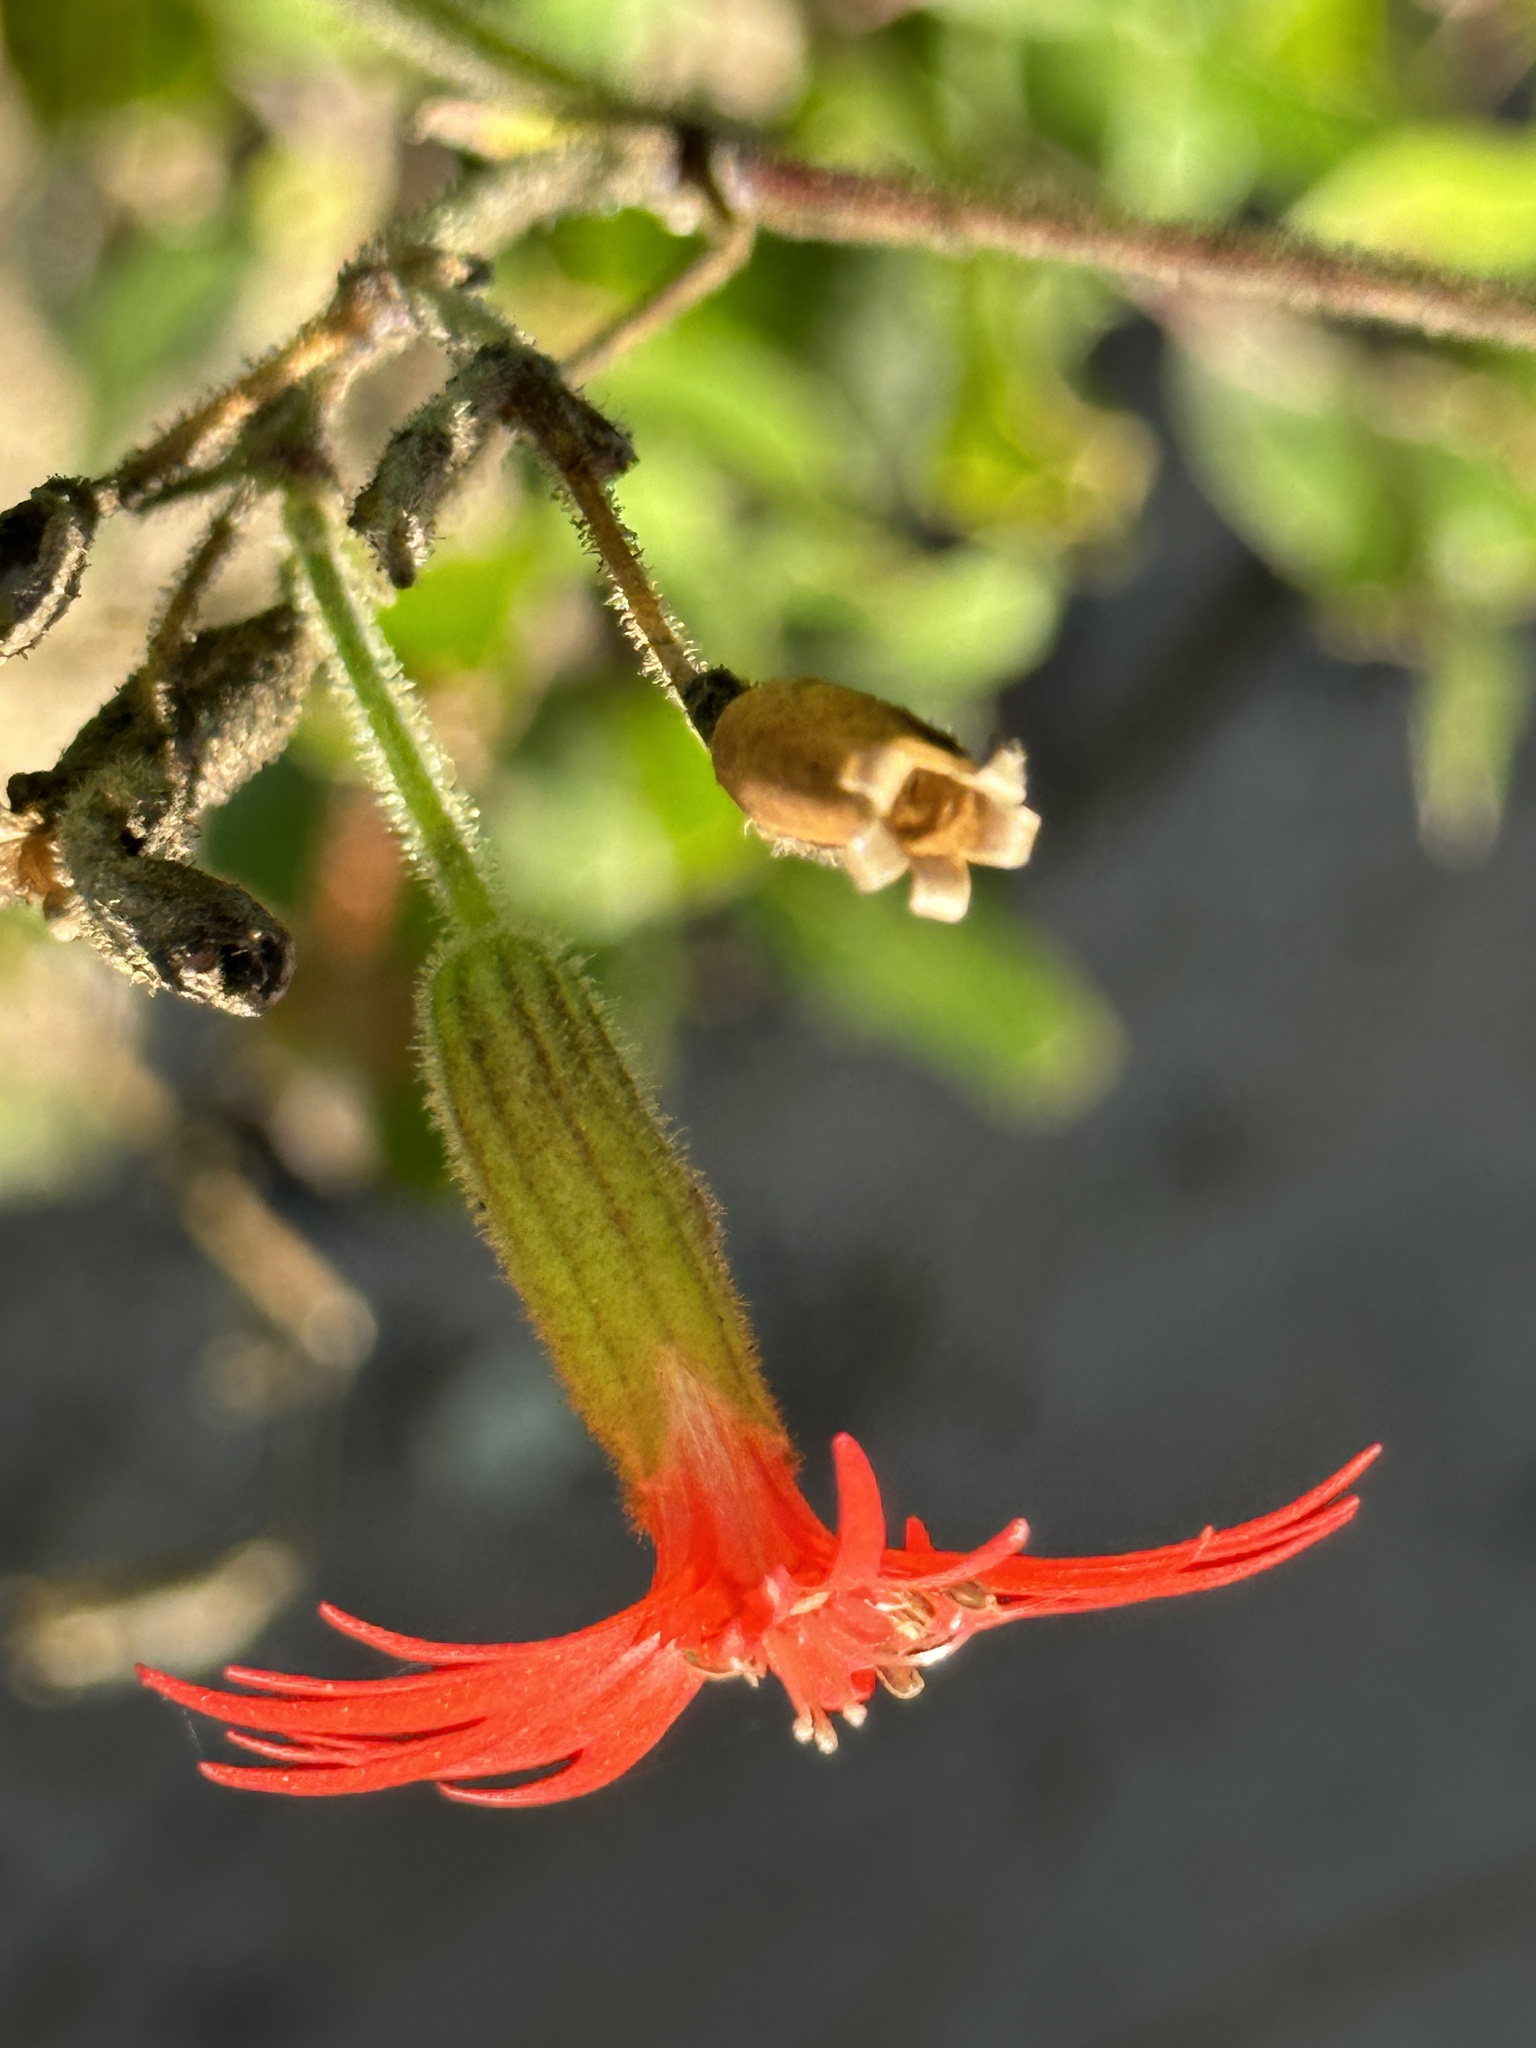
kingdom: Plantae
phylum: Tracheophyta
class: Magnoliopsida
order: Caryophyllales
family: Caryophyllaceae
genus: Silene
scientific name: Silene laciniata
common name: Indian-pink
